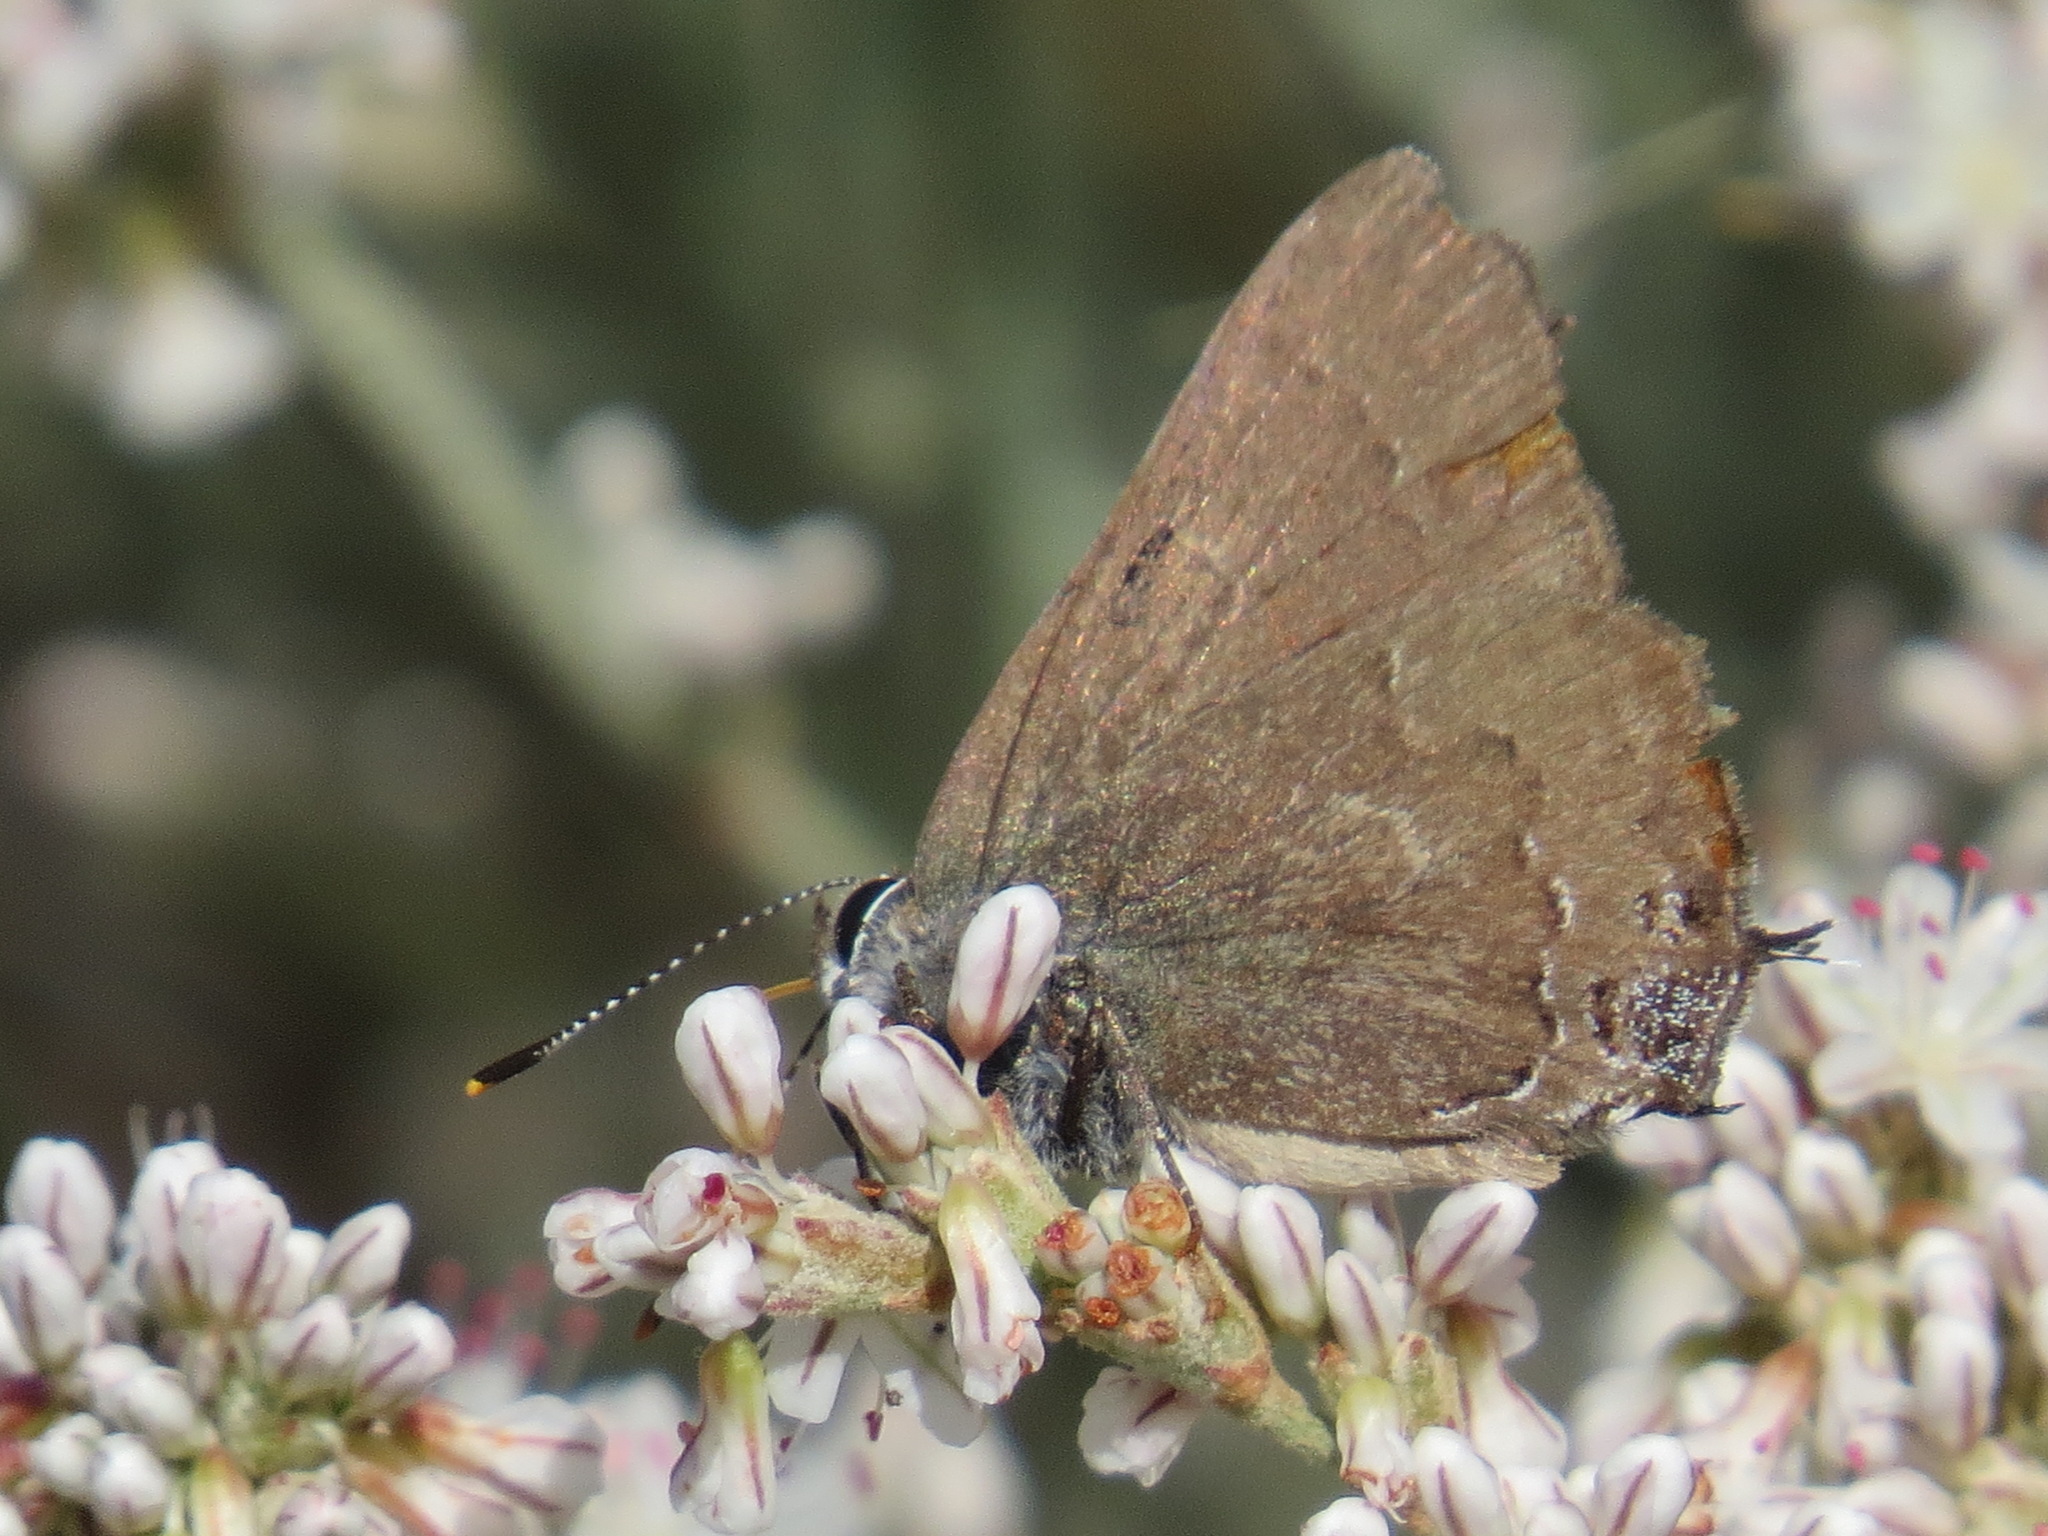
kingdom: Animalia
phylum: Arthropoda
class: Insecta
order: Lepidoptera
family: Lycaenidae
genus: Strymon
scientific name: Strymon saepium
